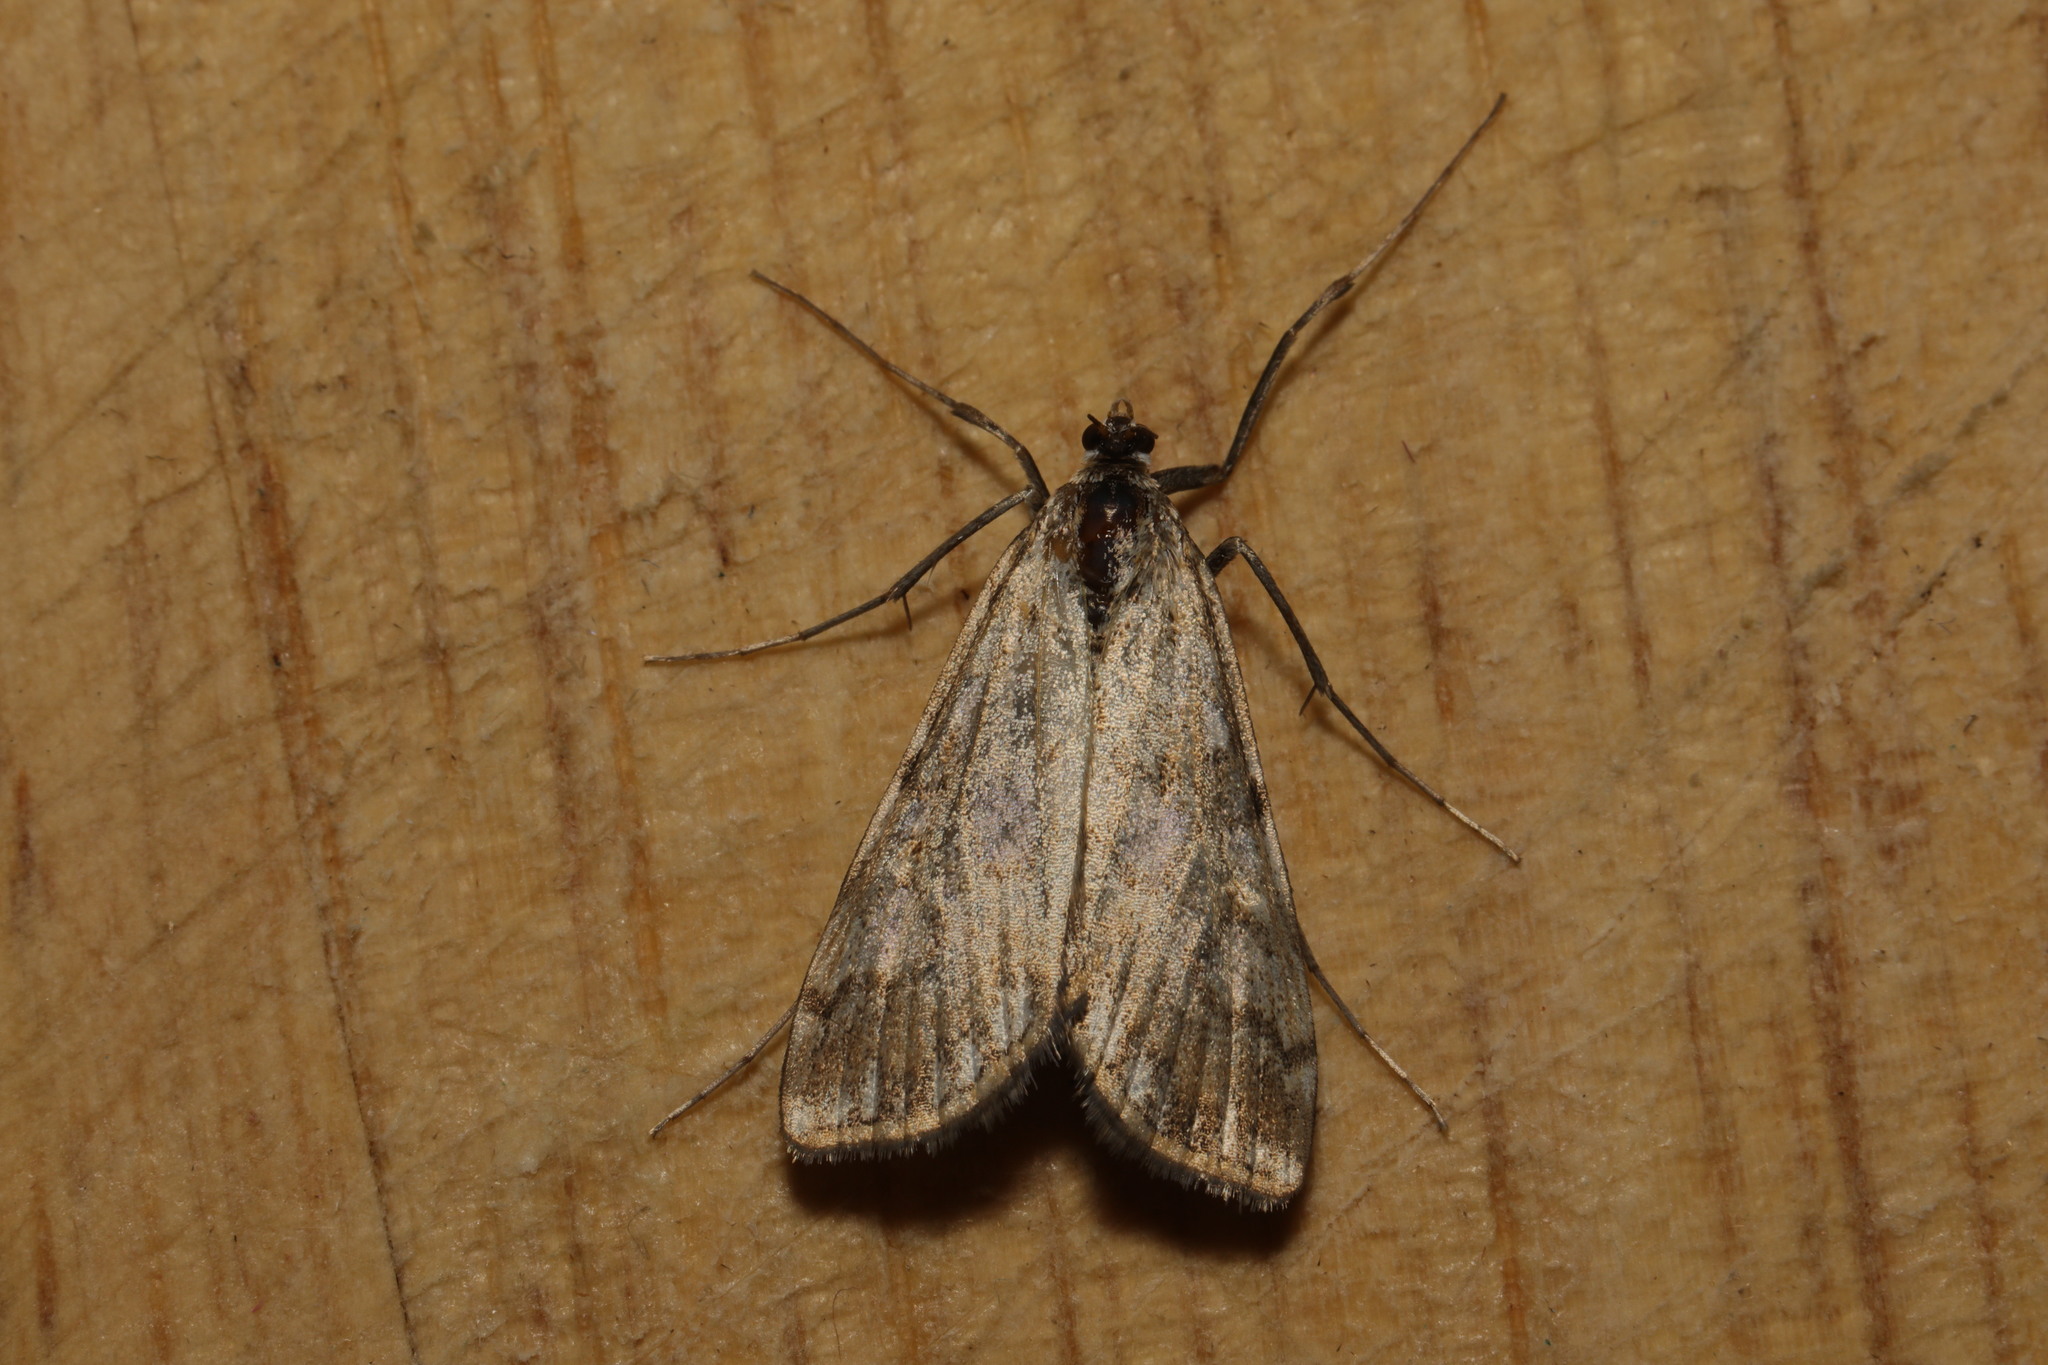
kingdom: Animalia
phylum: Arthropoda
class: Insecta
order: Lepidoptera
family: Crambidae
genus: Elophila
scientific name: Elophila nymphaeata
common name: Brown china-mark
